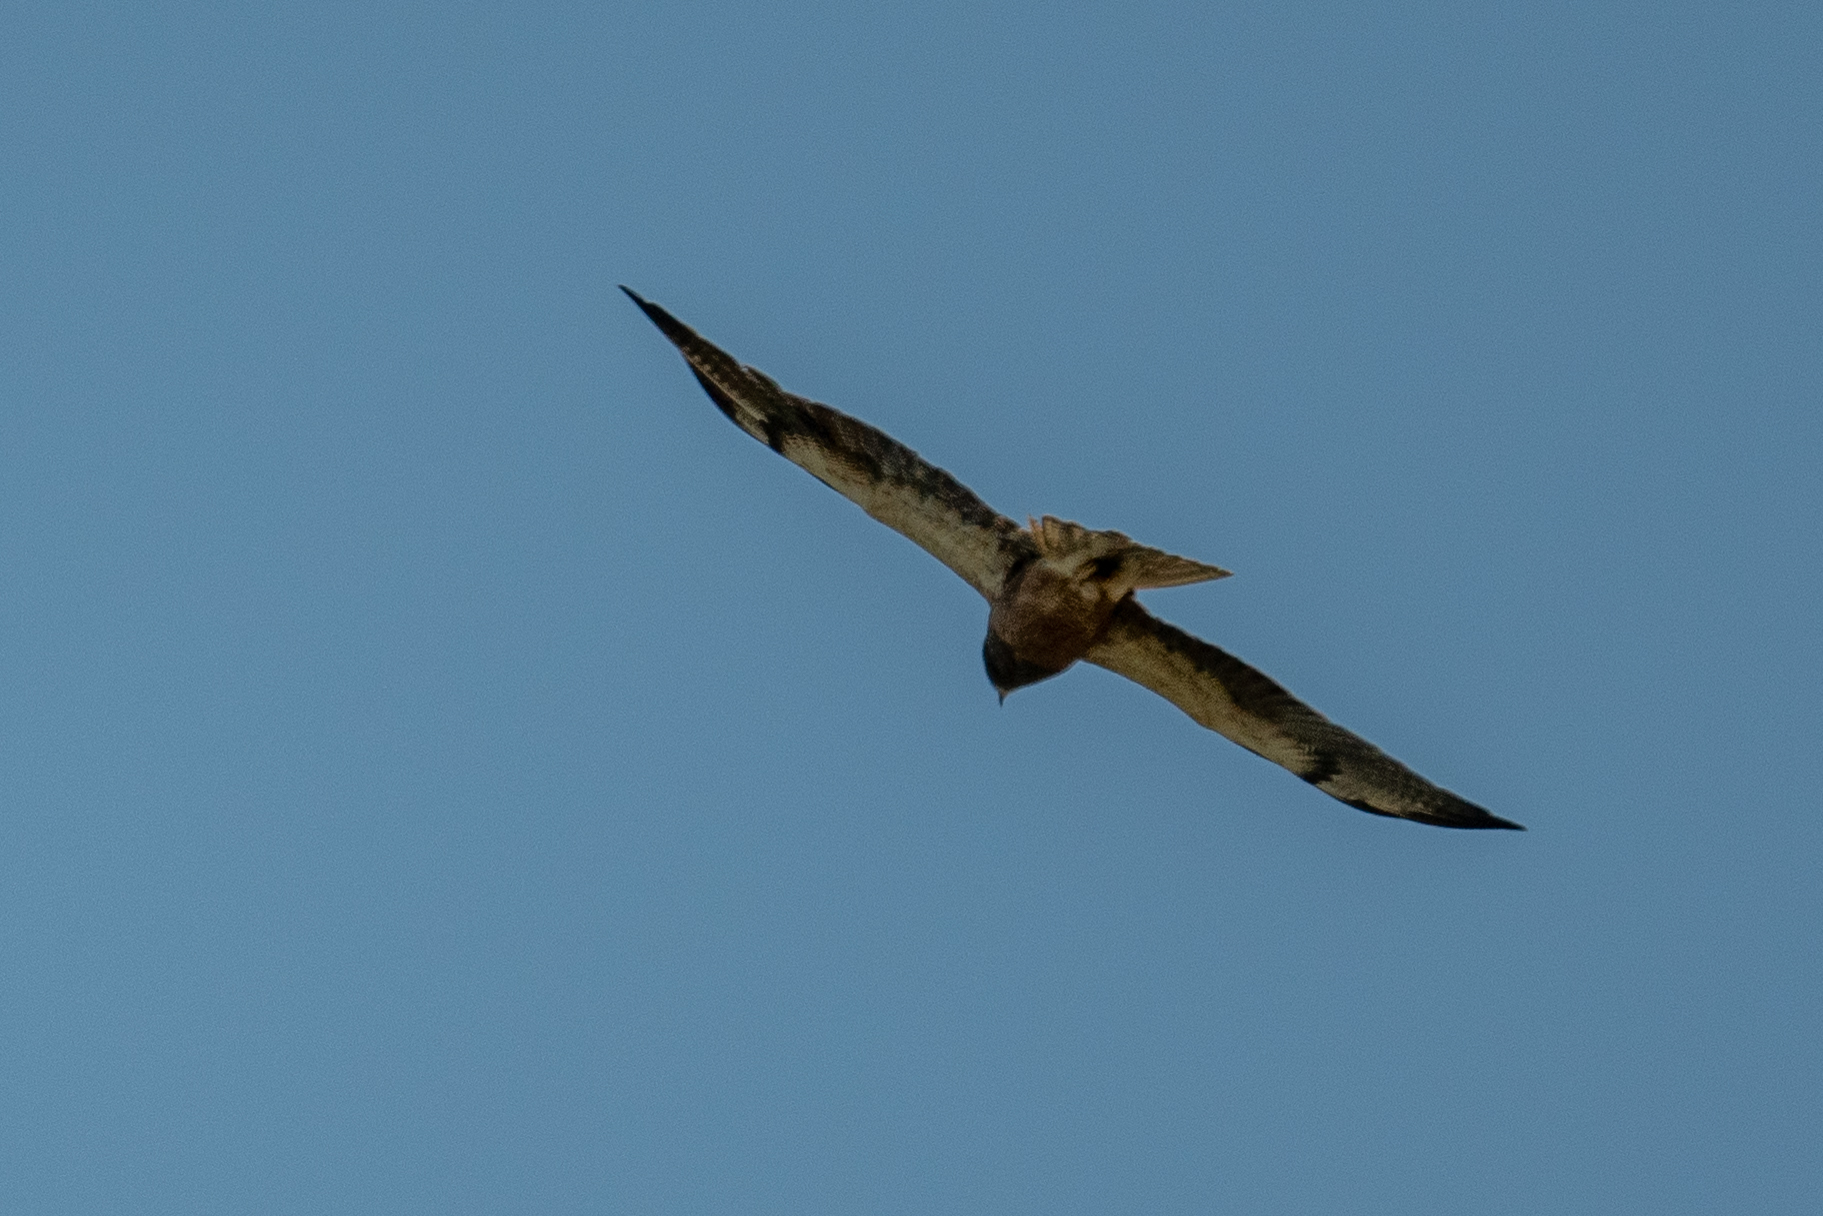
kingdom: Animalia
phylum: Chordata
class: Aves
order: Accipitriformes
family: Accipitridae
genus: Buteo
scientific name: Buteo swainsoni
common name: Swainson's hawk
